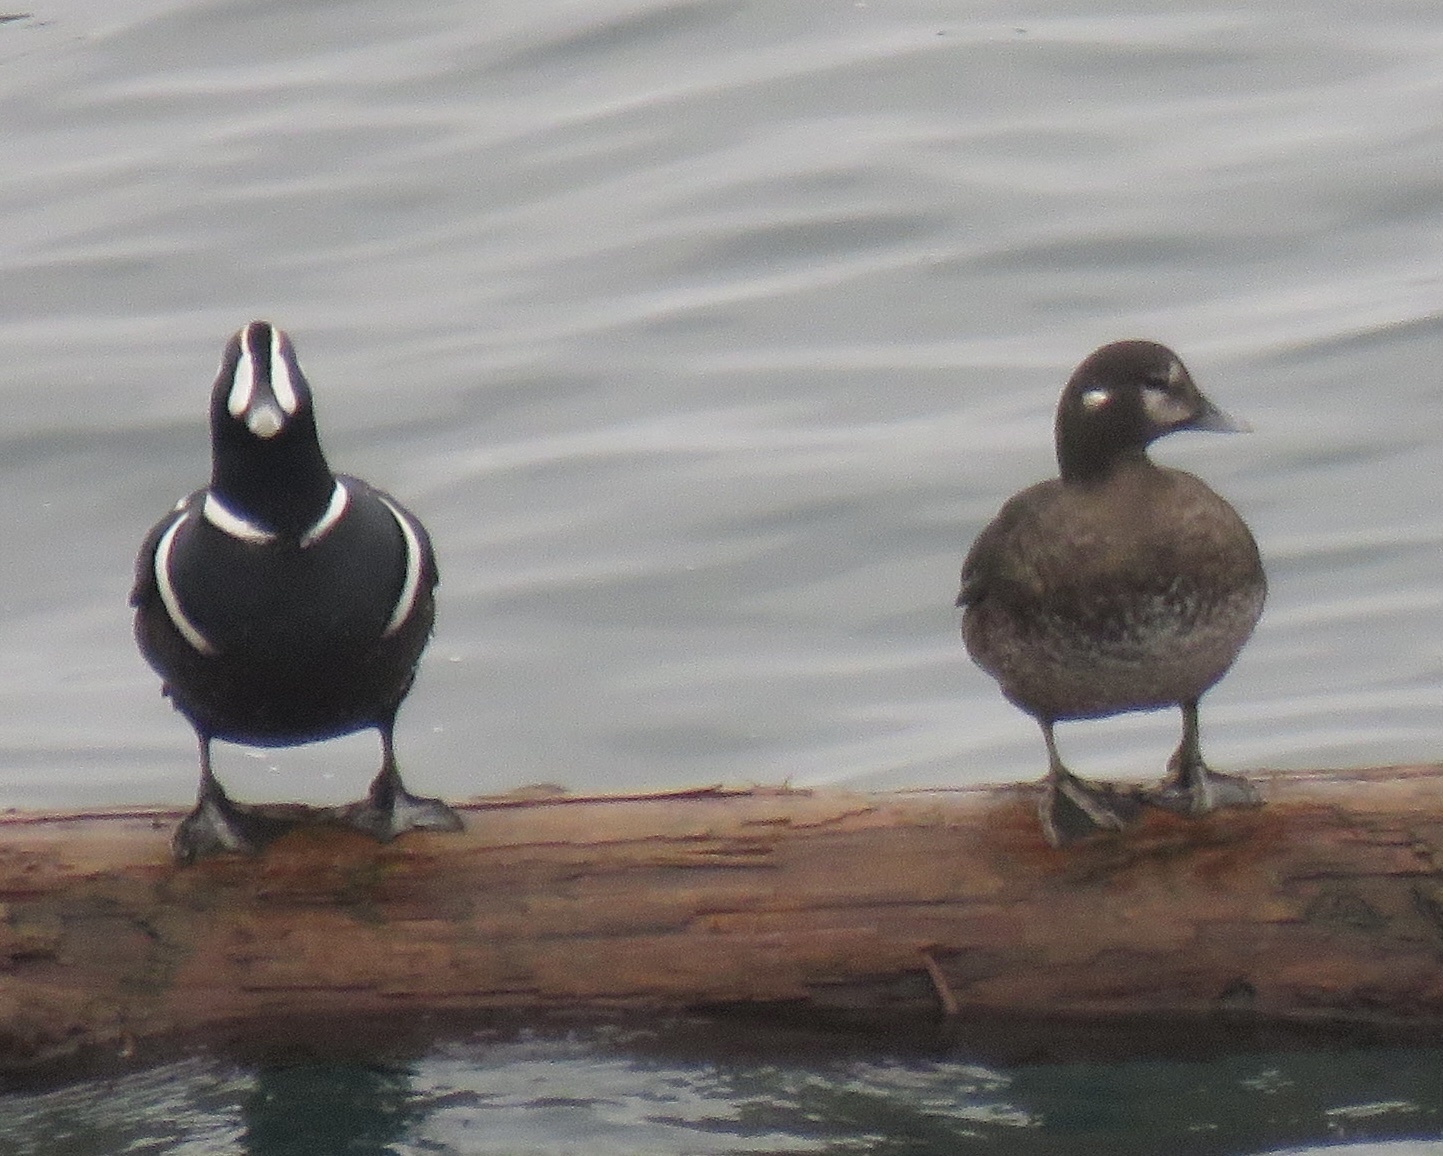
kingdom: Animalia
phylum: Chordata
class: Aves
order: Anseriformes
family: Anatidae
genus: Histrionicus
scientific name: Histrionicus histrionicus
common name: Harlequin duck
